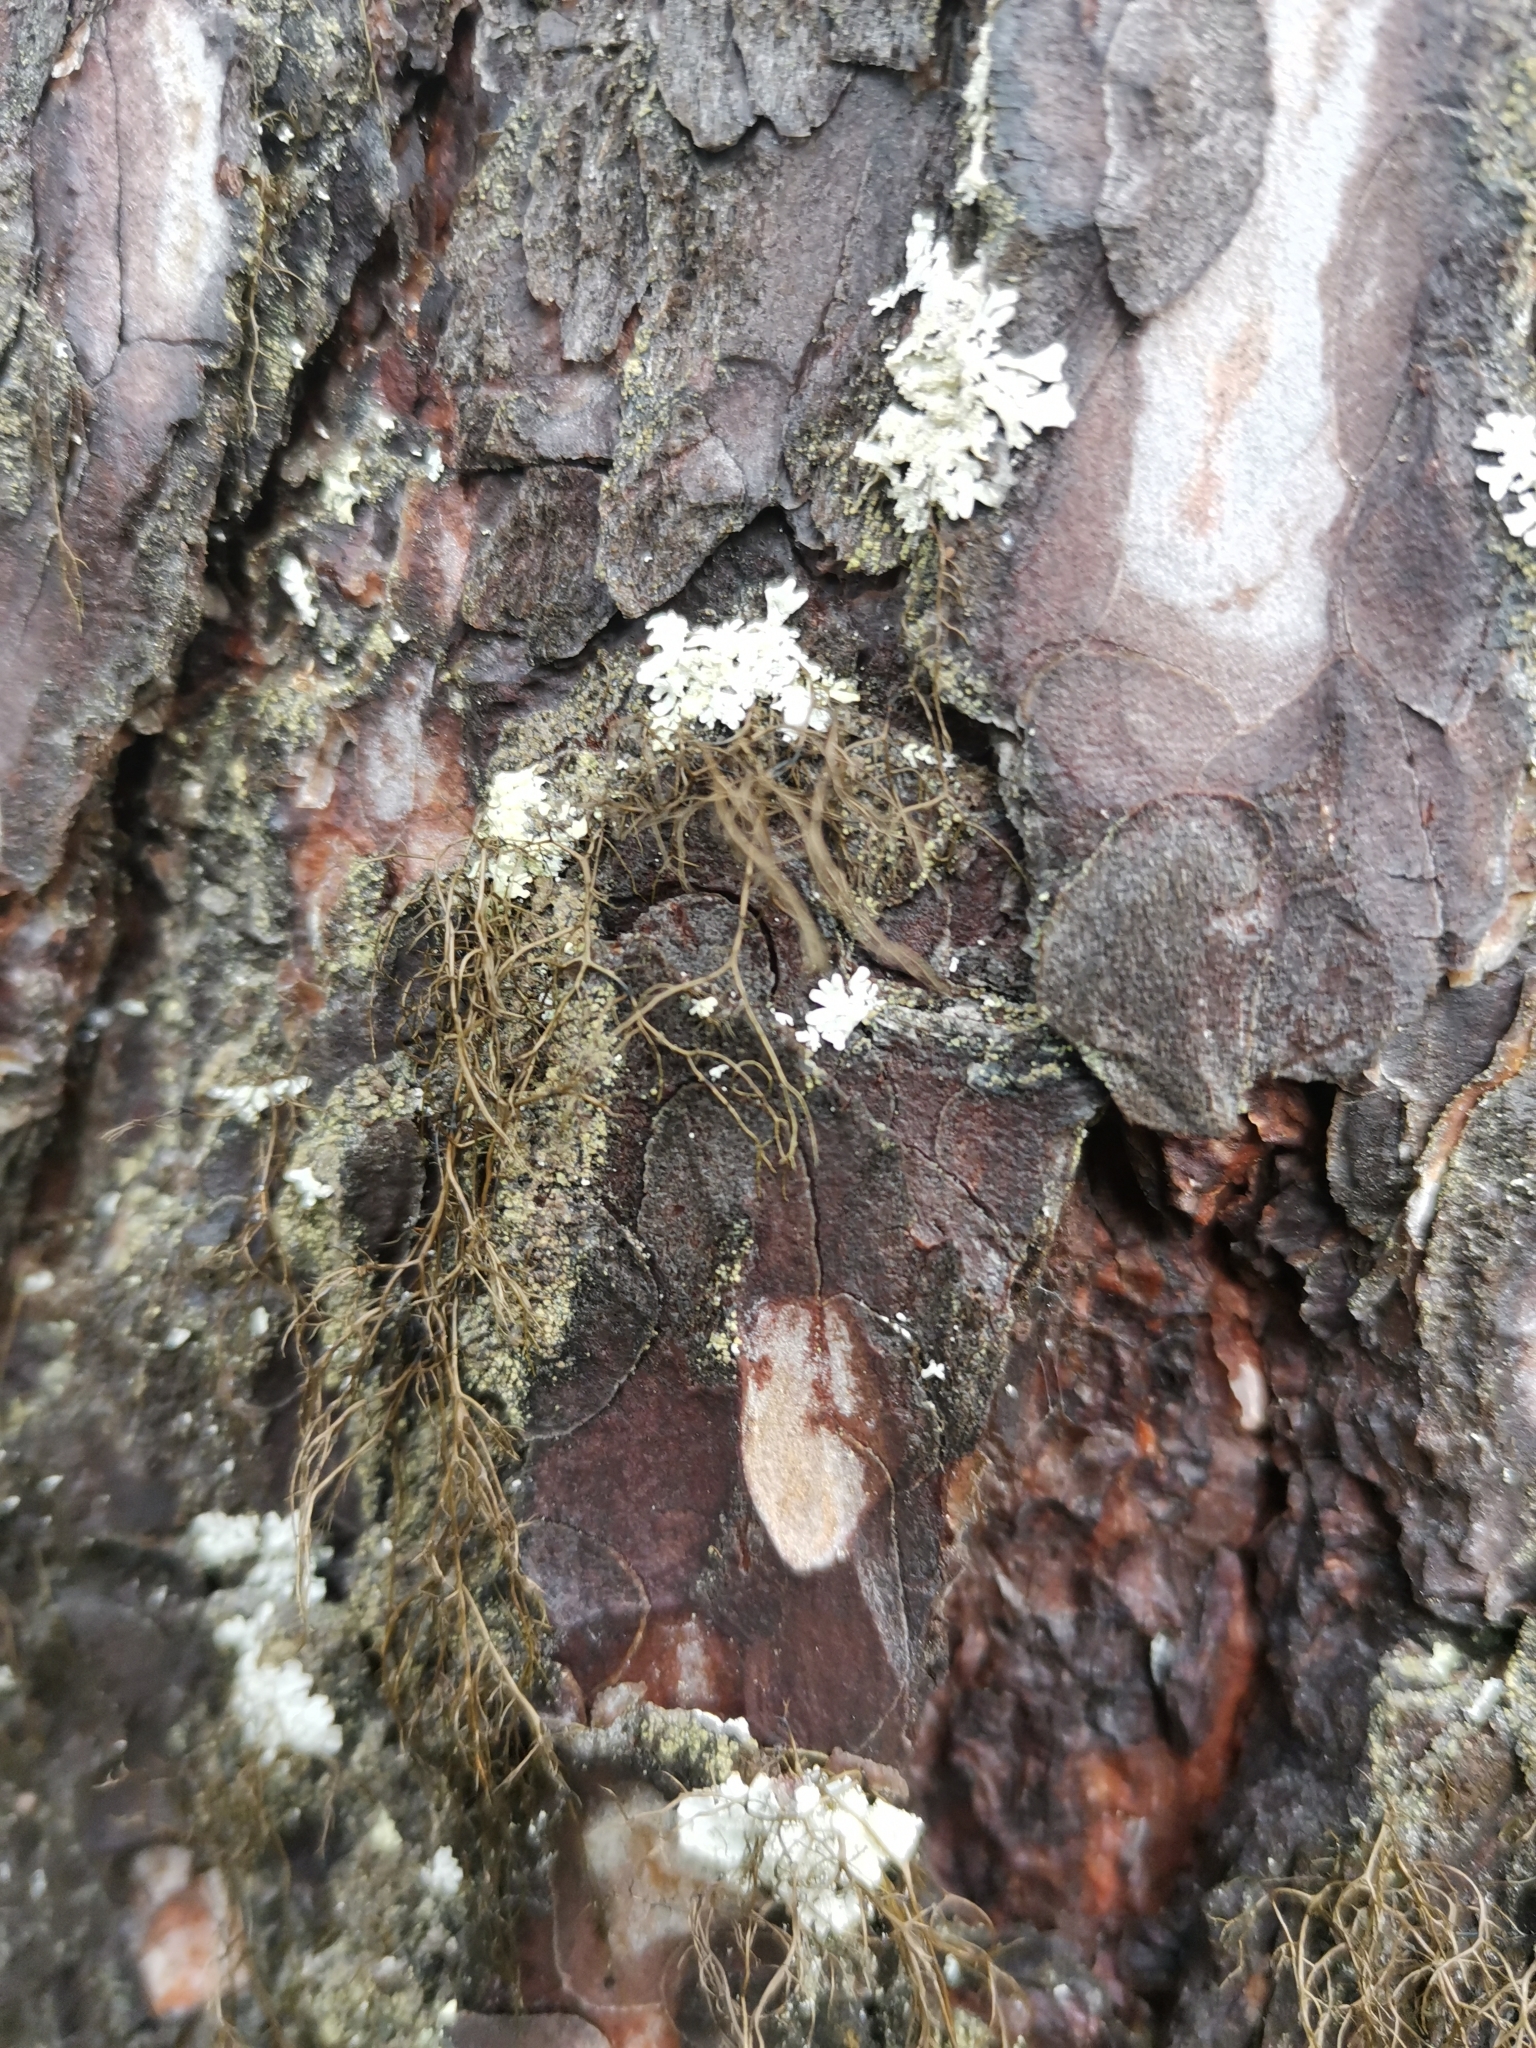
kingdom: Fungi
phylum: Ascomycota
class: Lecanoromycetes
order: Lecanorales
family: Parmeliaceae
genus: Bryoria
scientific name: Bryoria fuscescens
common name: Pale-footed horsehair lichen
